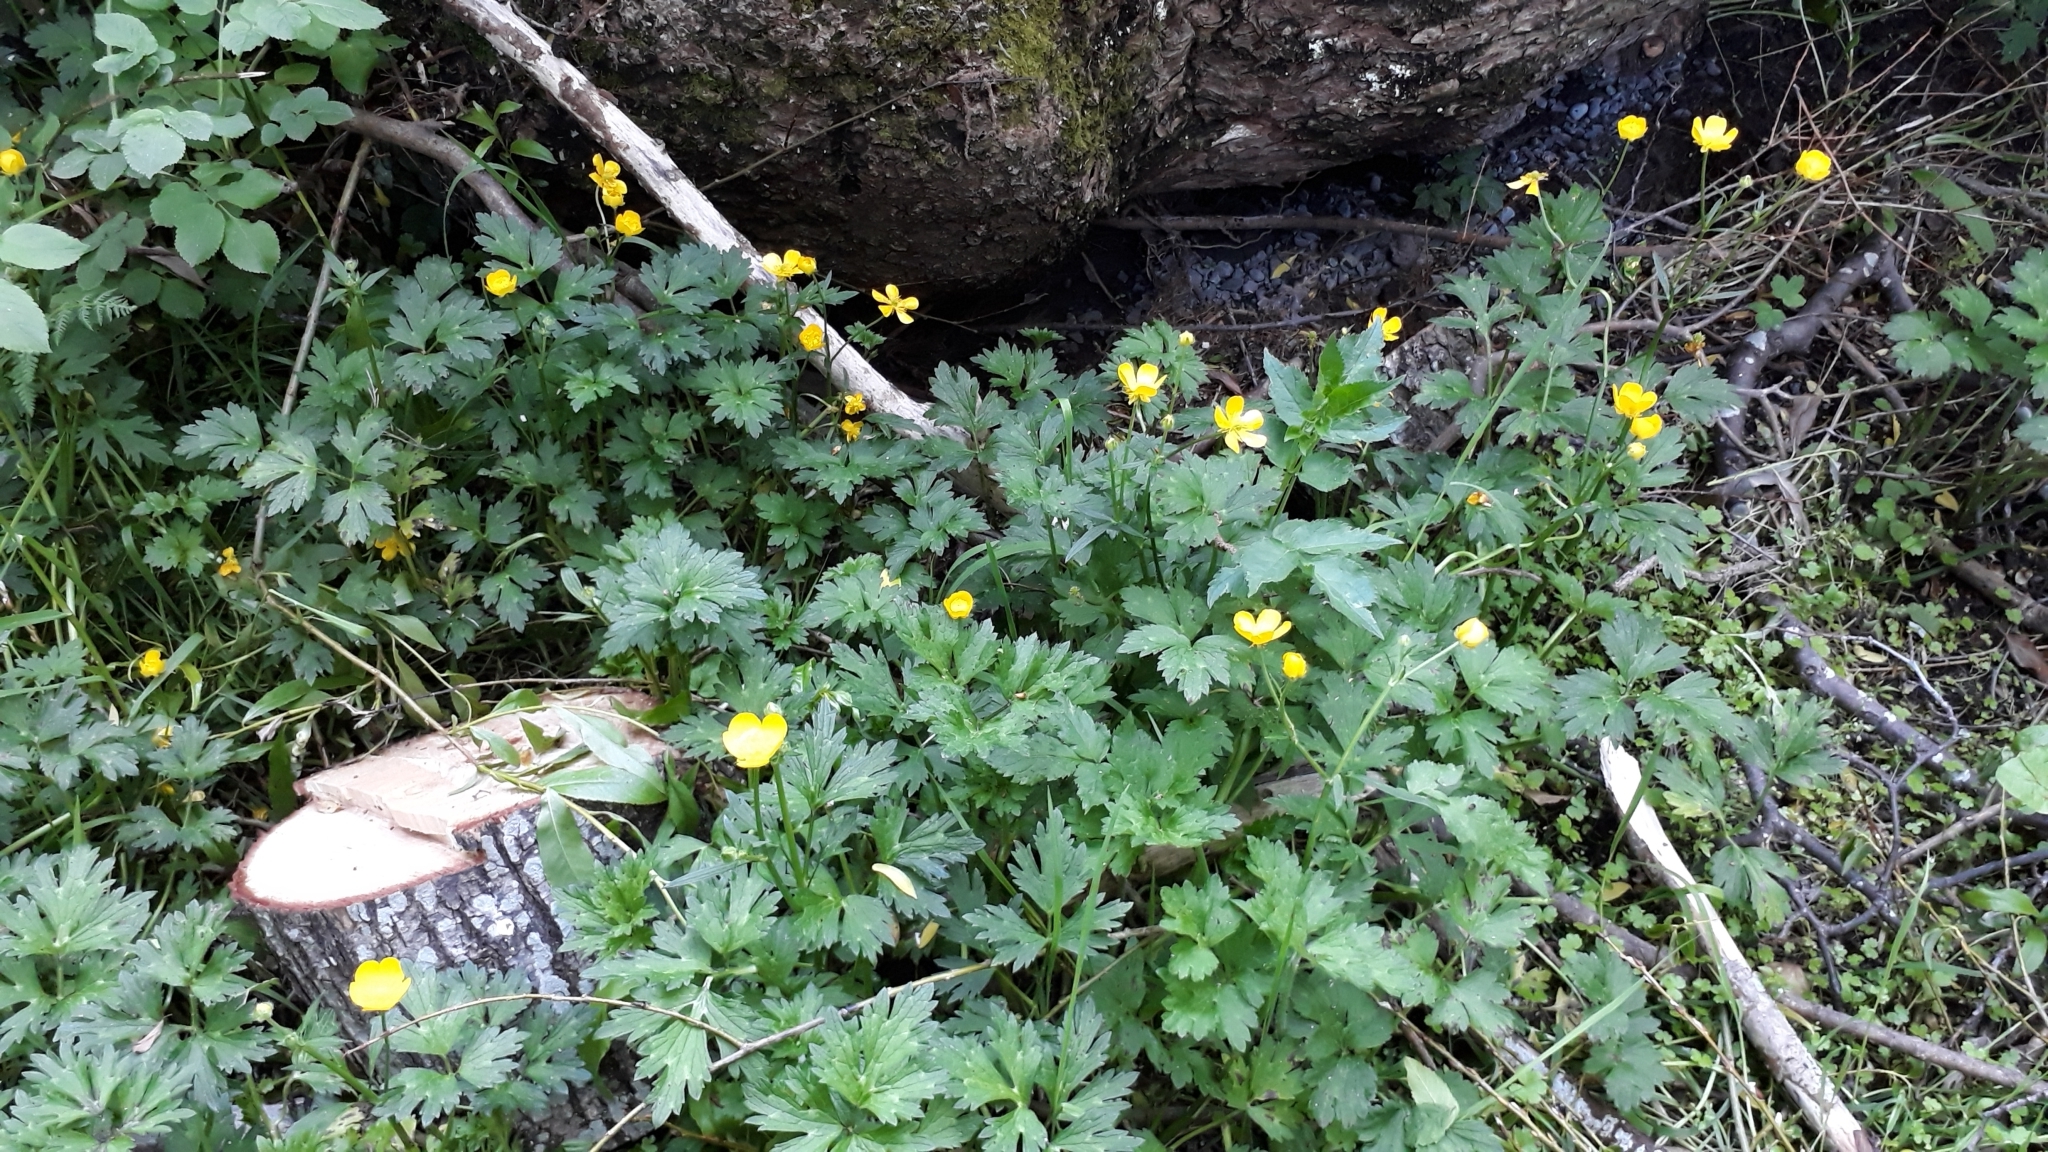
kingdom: Plantae
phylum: Tracheophyta
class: Magnoliopsida
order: Ranunculales
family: Ranunculaceae
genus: Ranunculus
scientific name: Ranunculus repens
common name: Creeping buttercup
